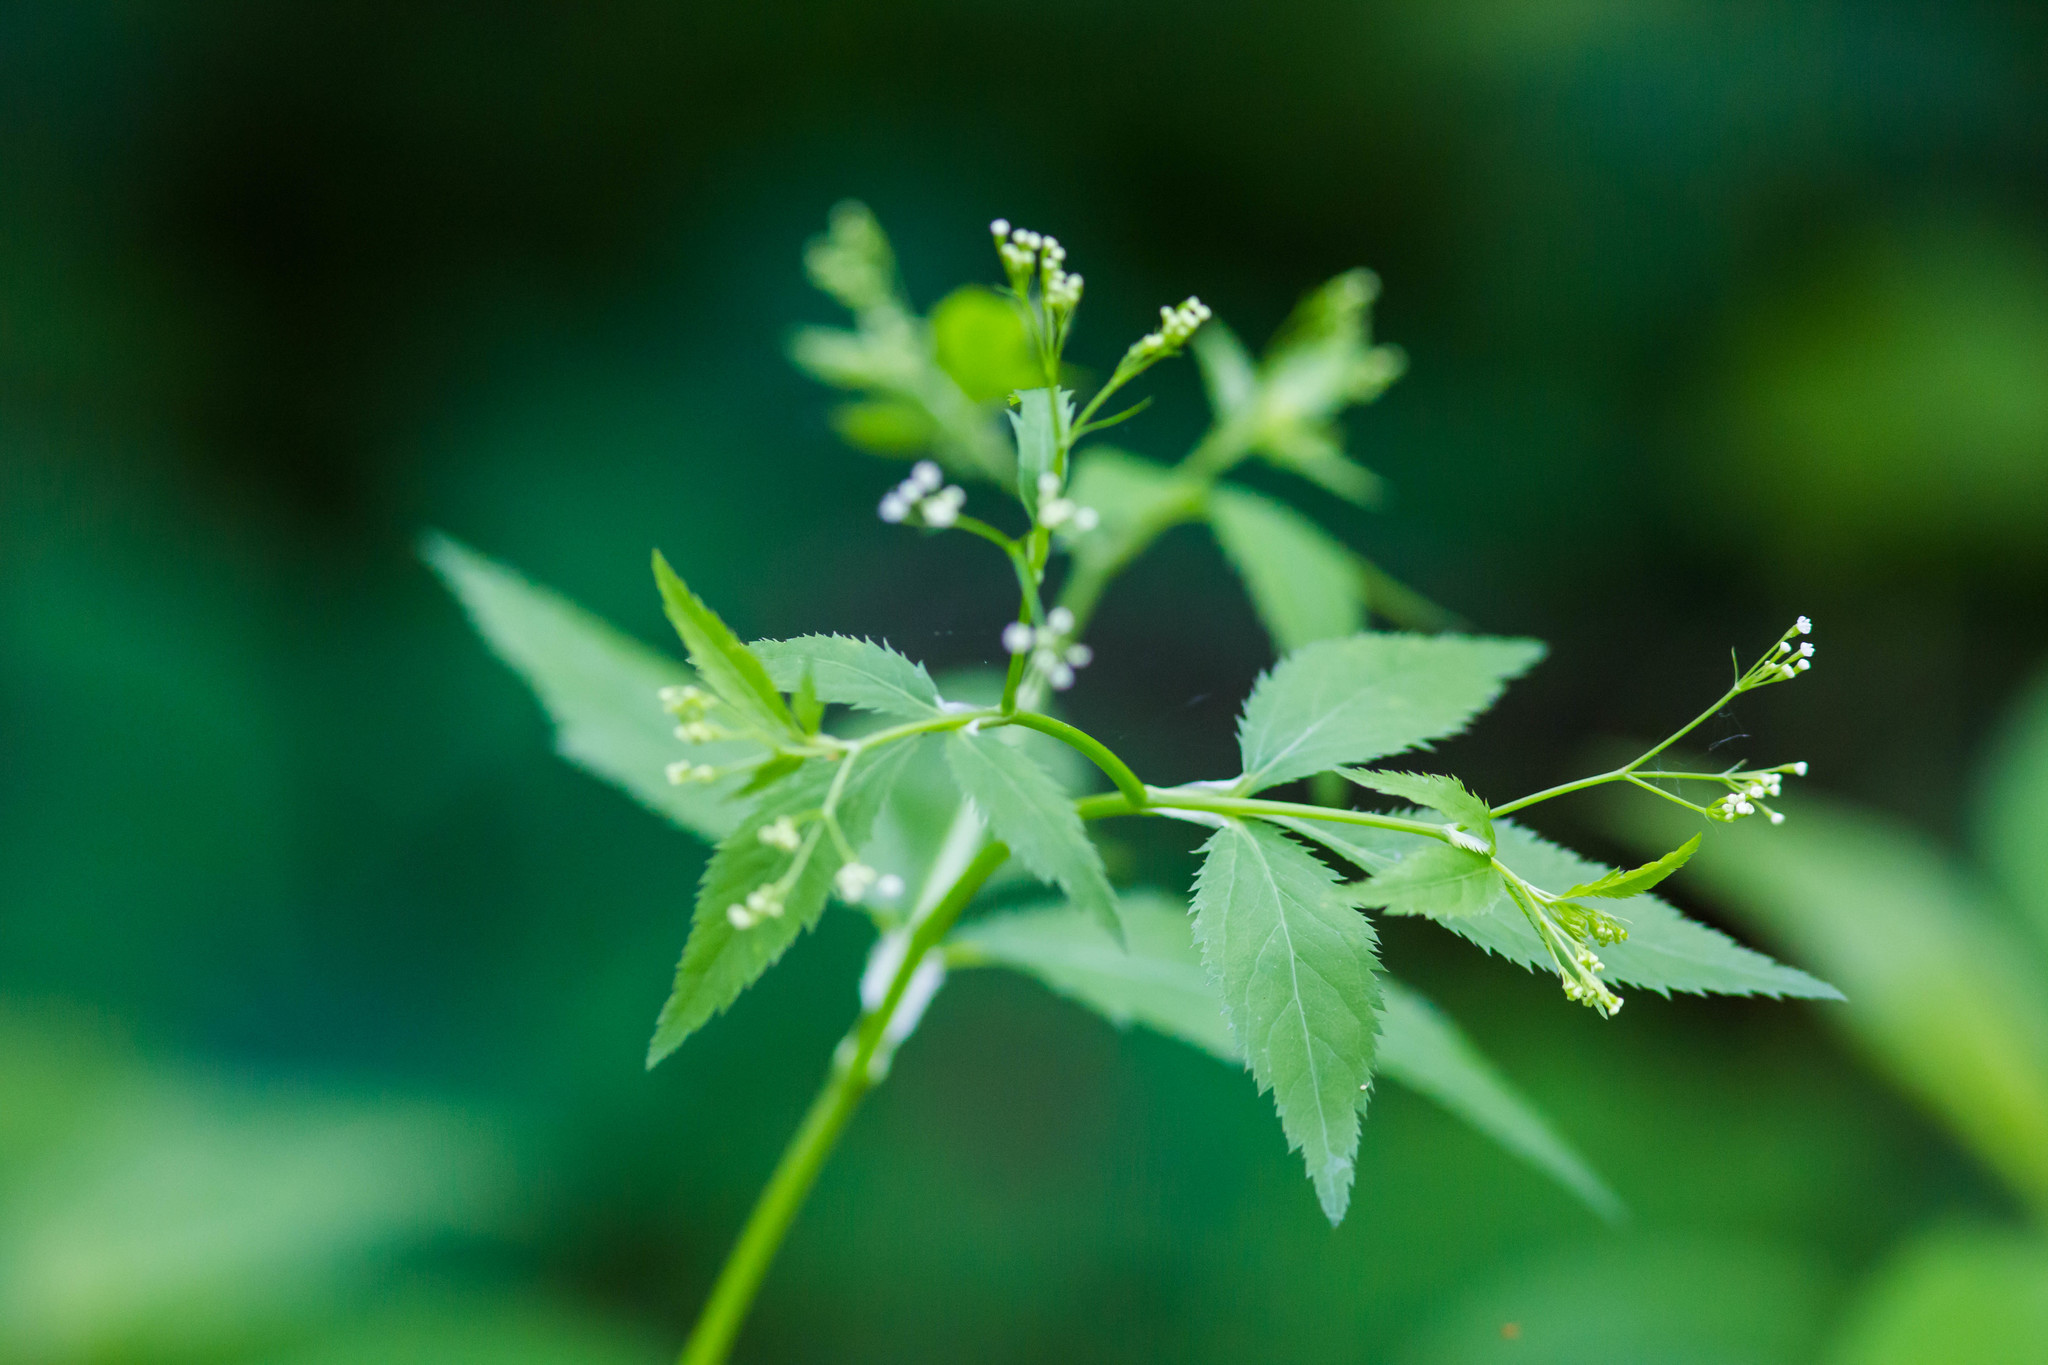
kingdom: Plantae
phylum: Tracheophyta
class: Magnoliopsida
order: Apiales
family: Apiaceae
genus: Cryptotaenia
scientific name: Cryptotaenia canadensis
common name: Honewort
